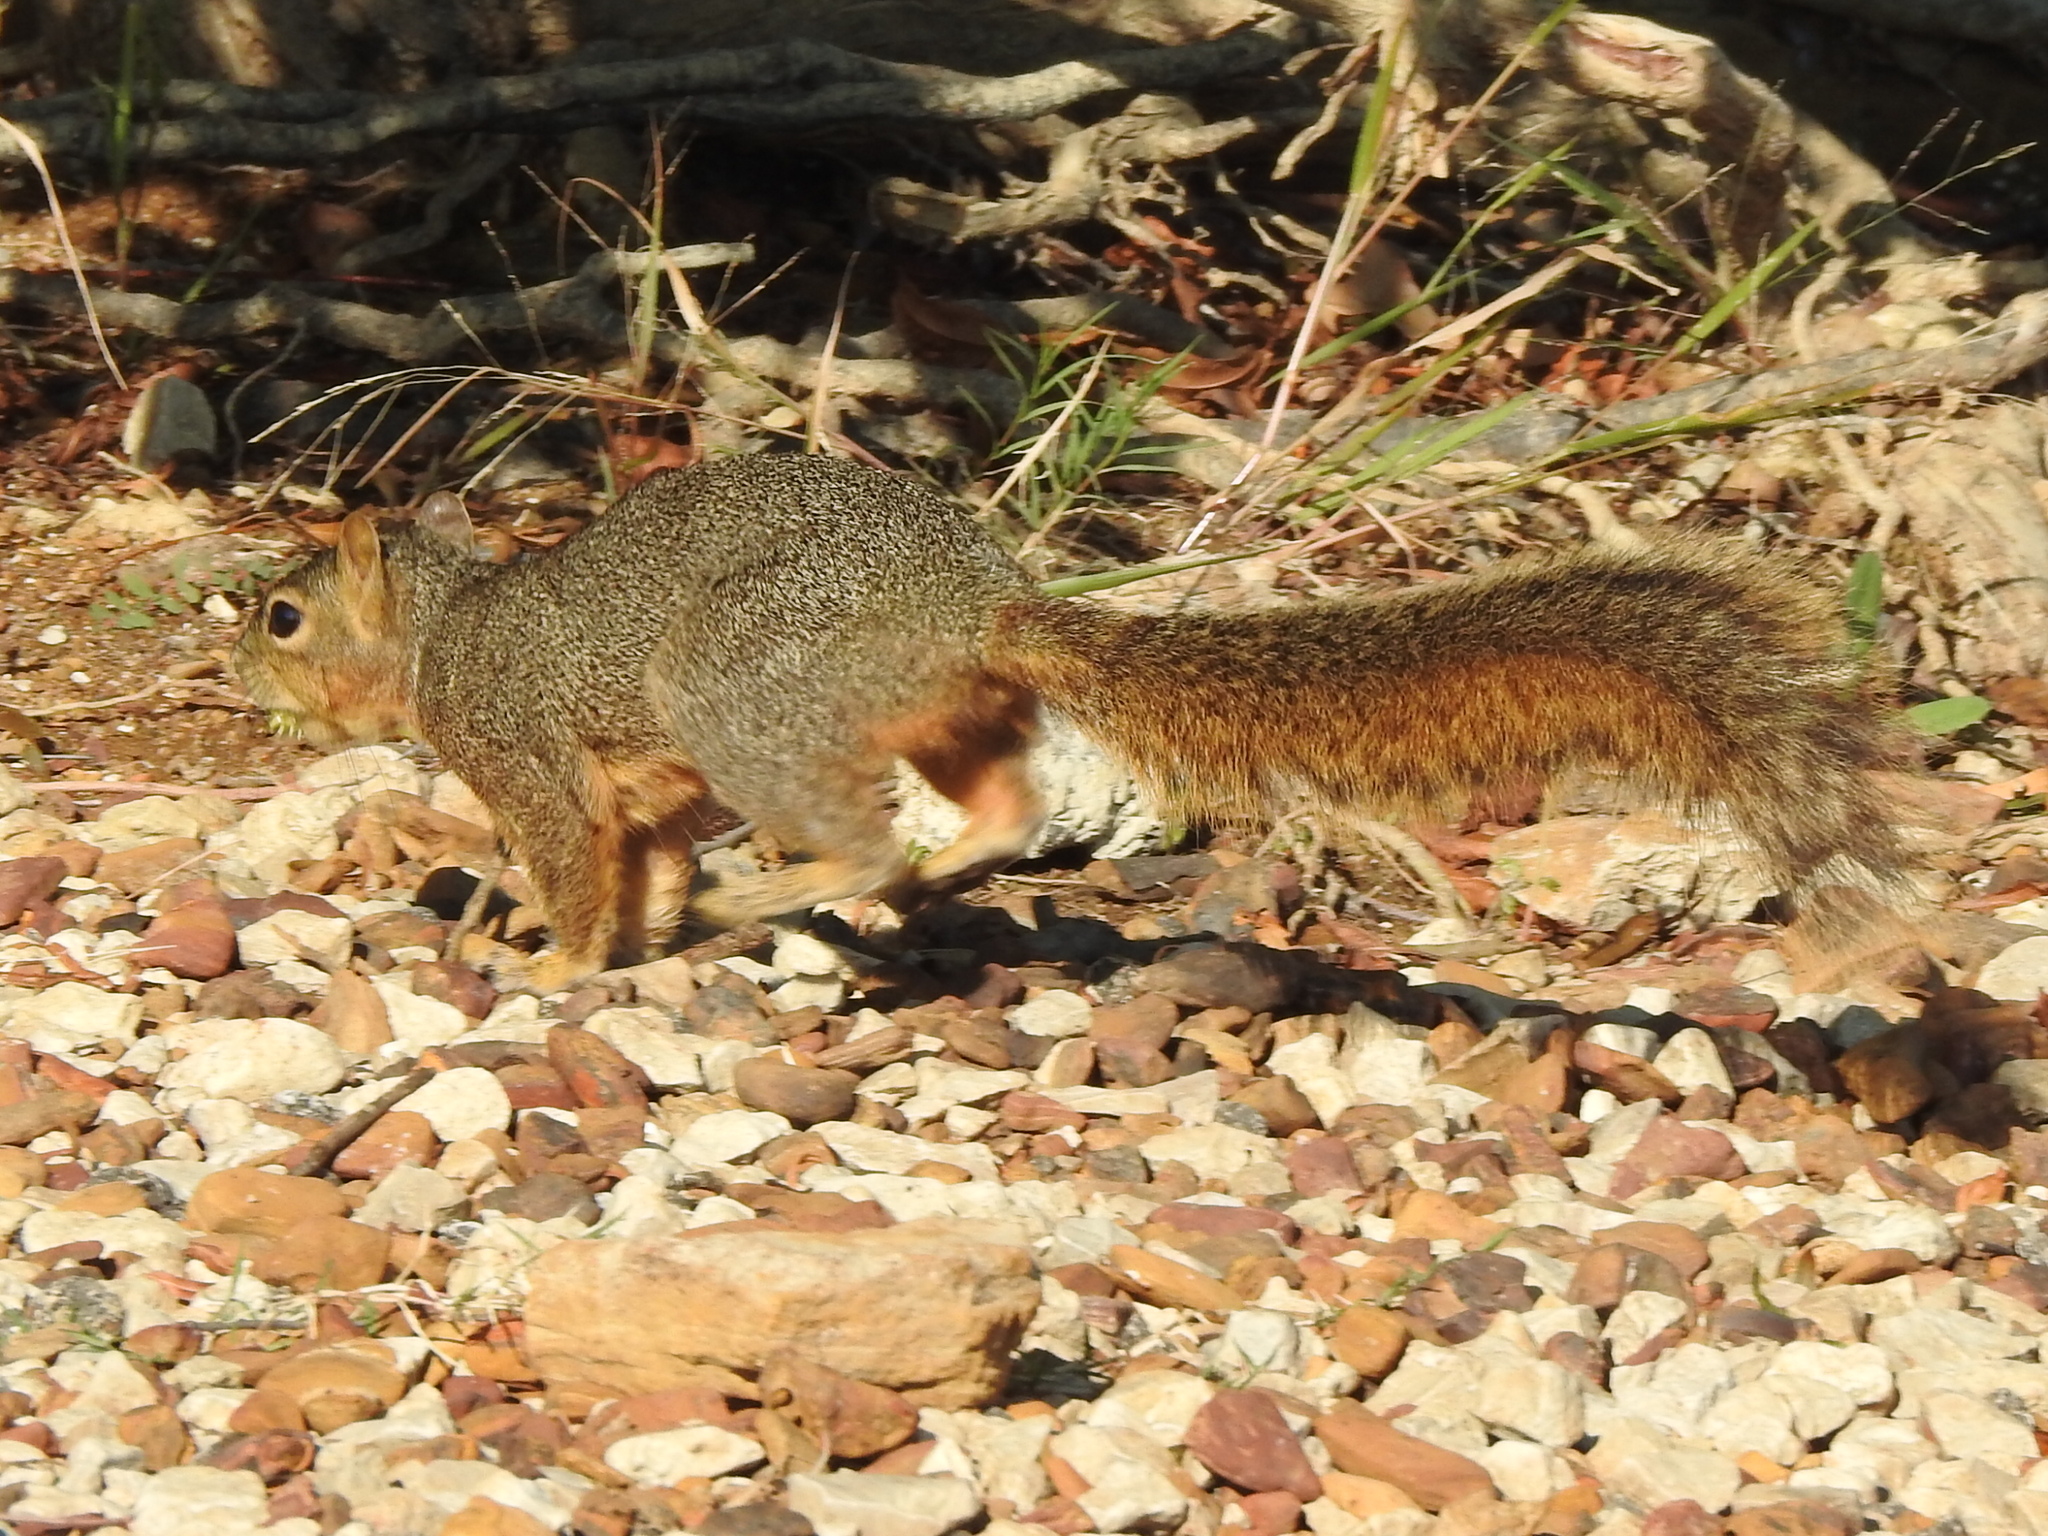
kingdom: Animalia
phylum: Chordata
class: Mammalia
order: Rodentia
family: Sciuridae
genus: Sciurus
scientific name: Sciurus niger
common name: Fox squirrel
